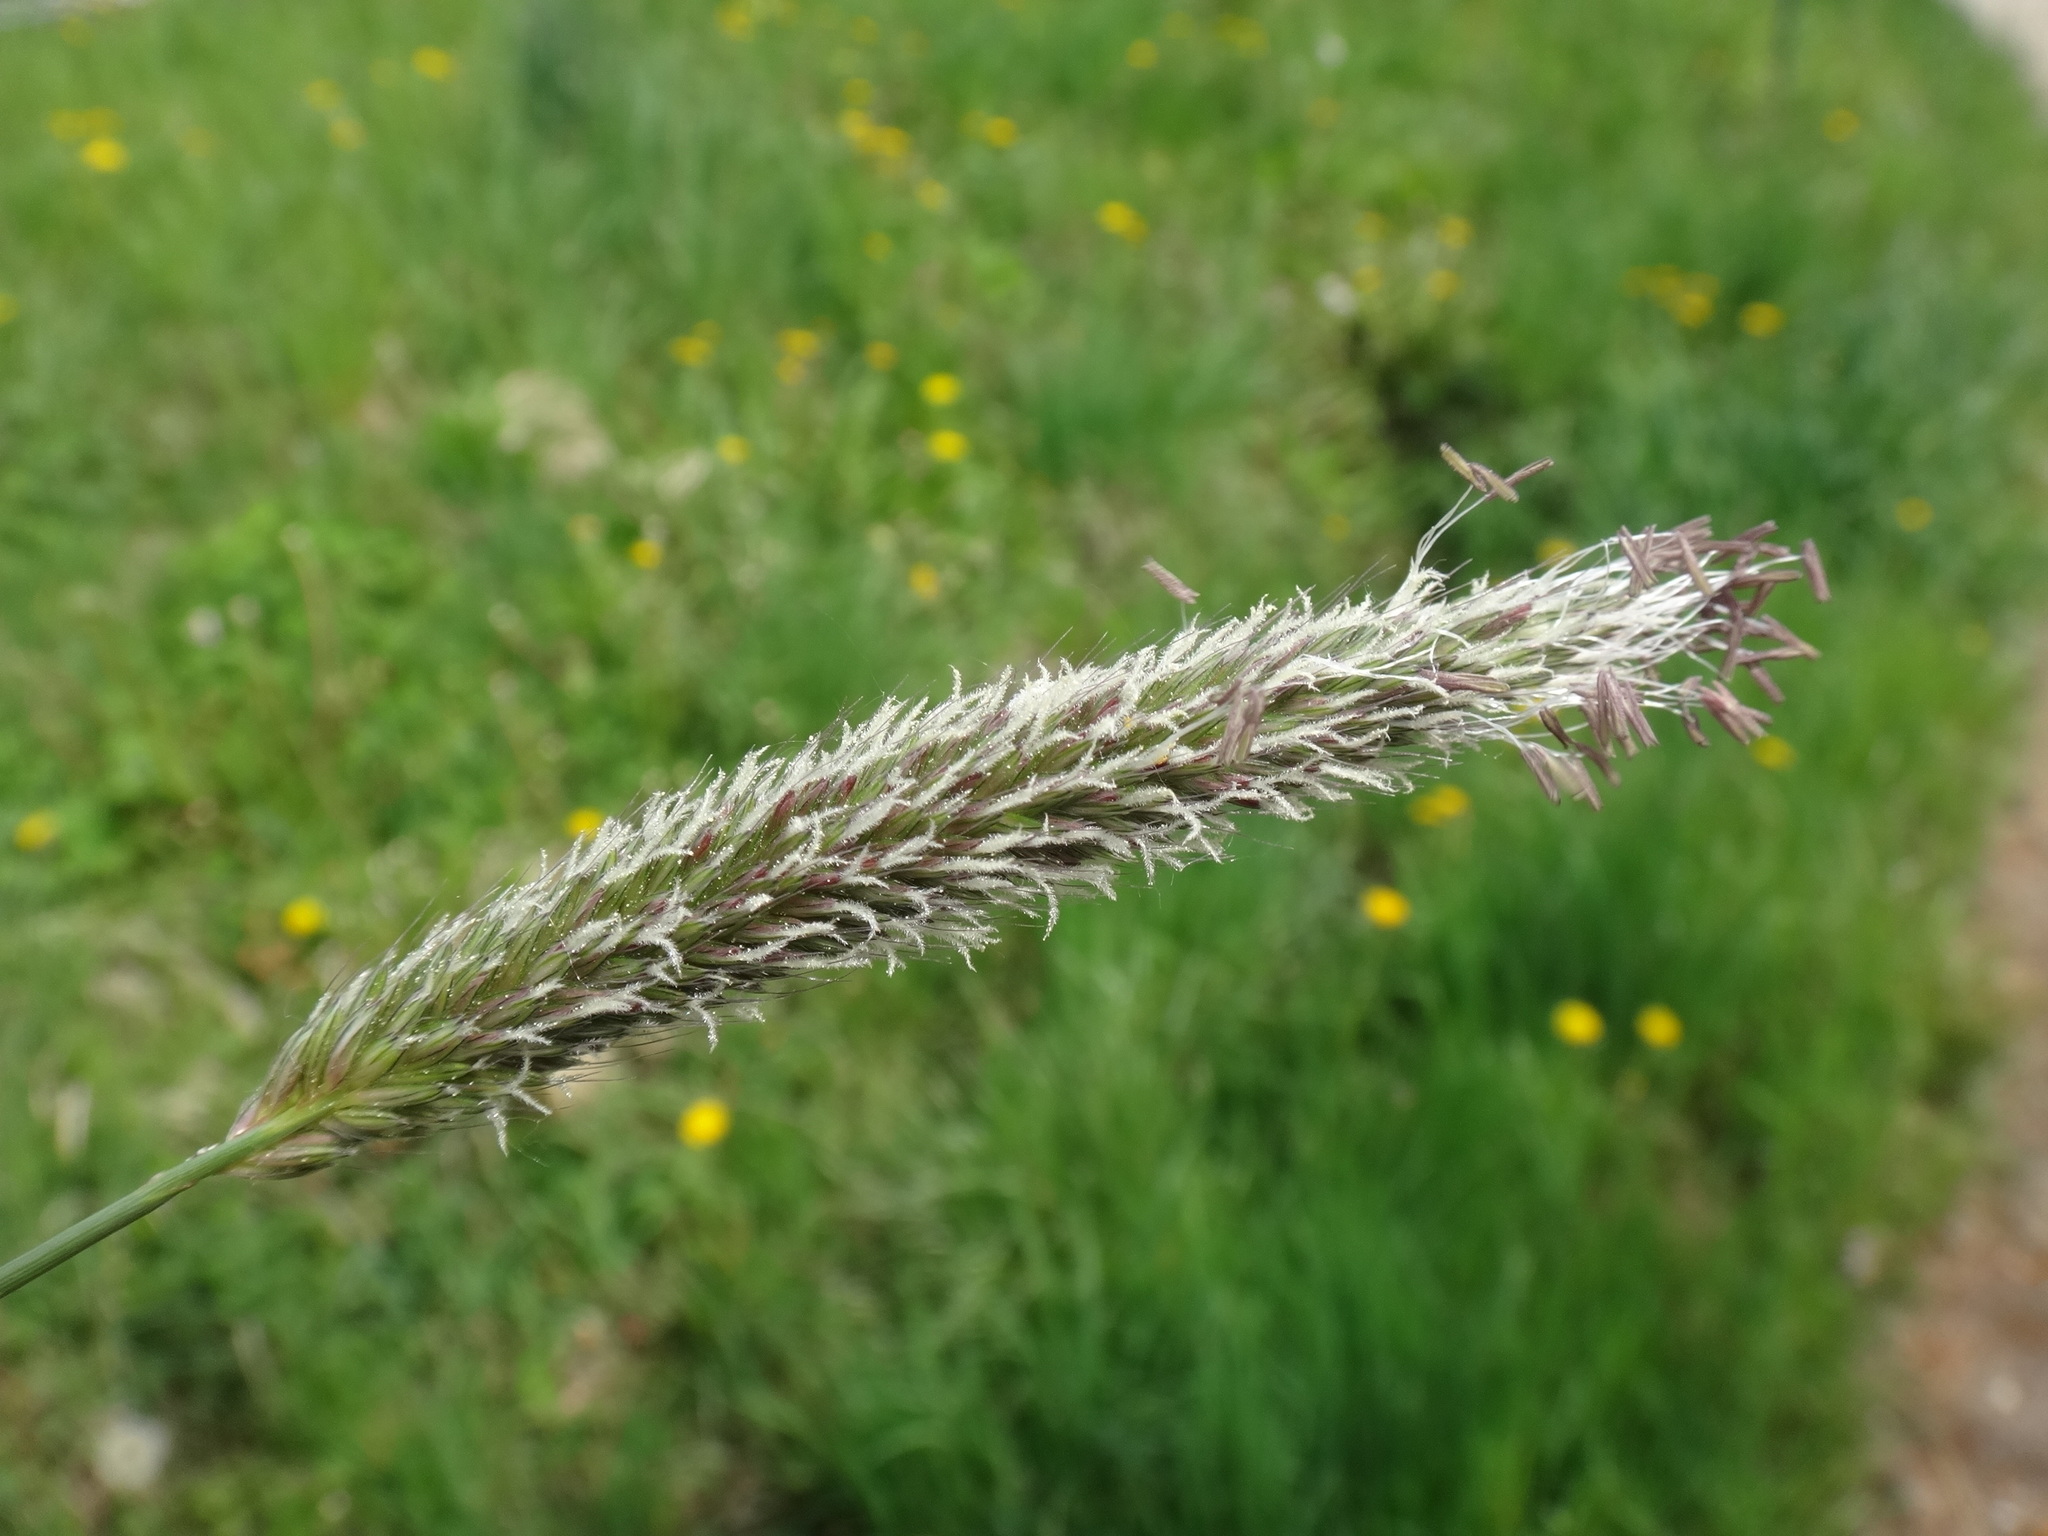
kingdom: Plantae
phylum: Tracheophyta
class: Liliopsida
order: Poales
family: Poaceae
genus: Alopecurus
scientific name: Alopecurus pratensis
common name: Meadow foxtail
